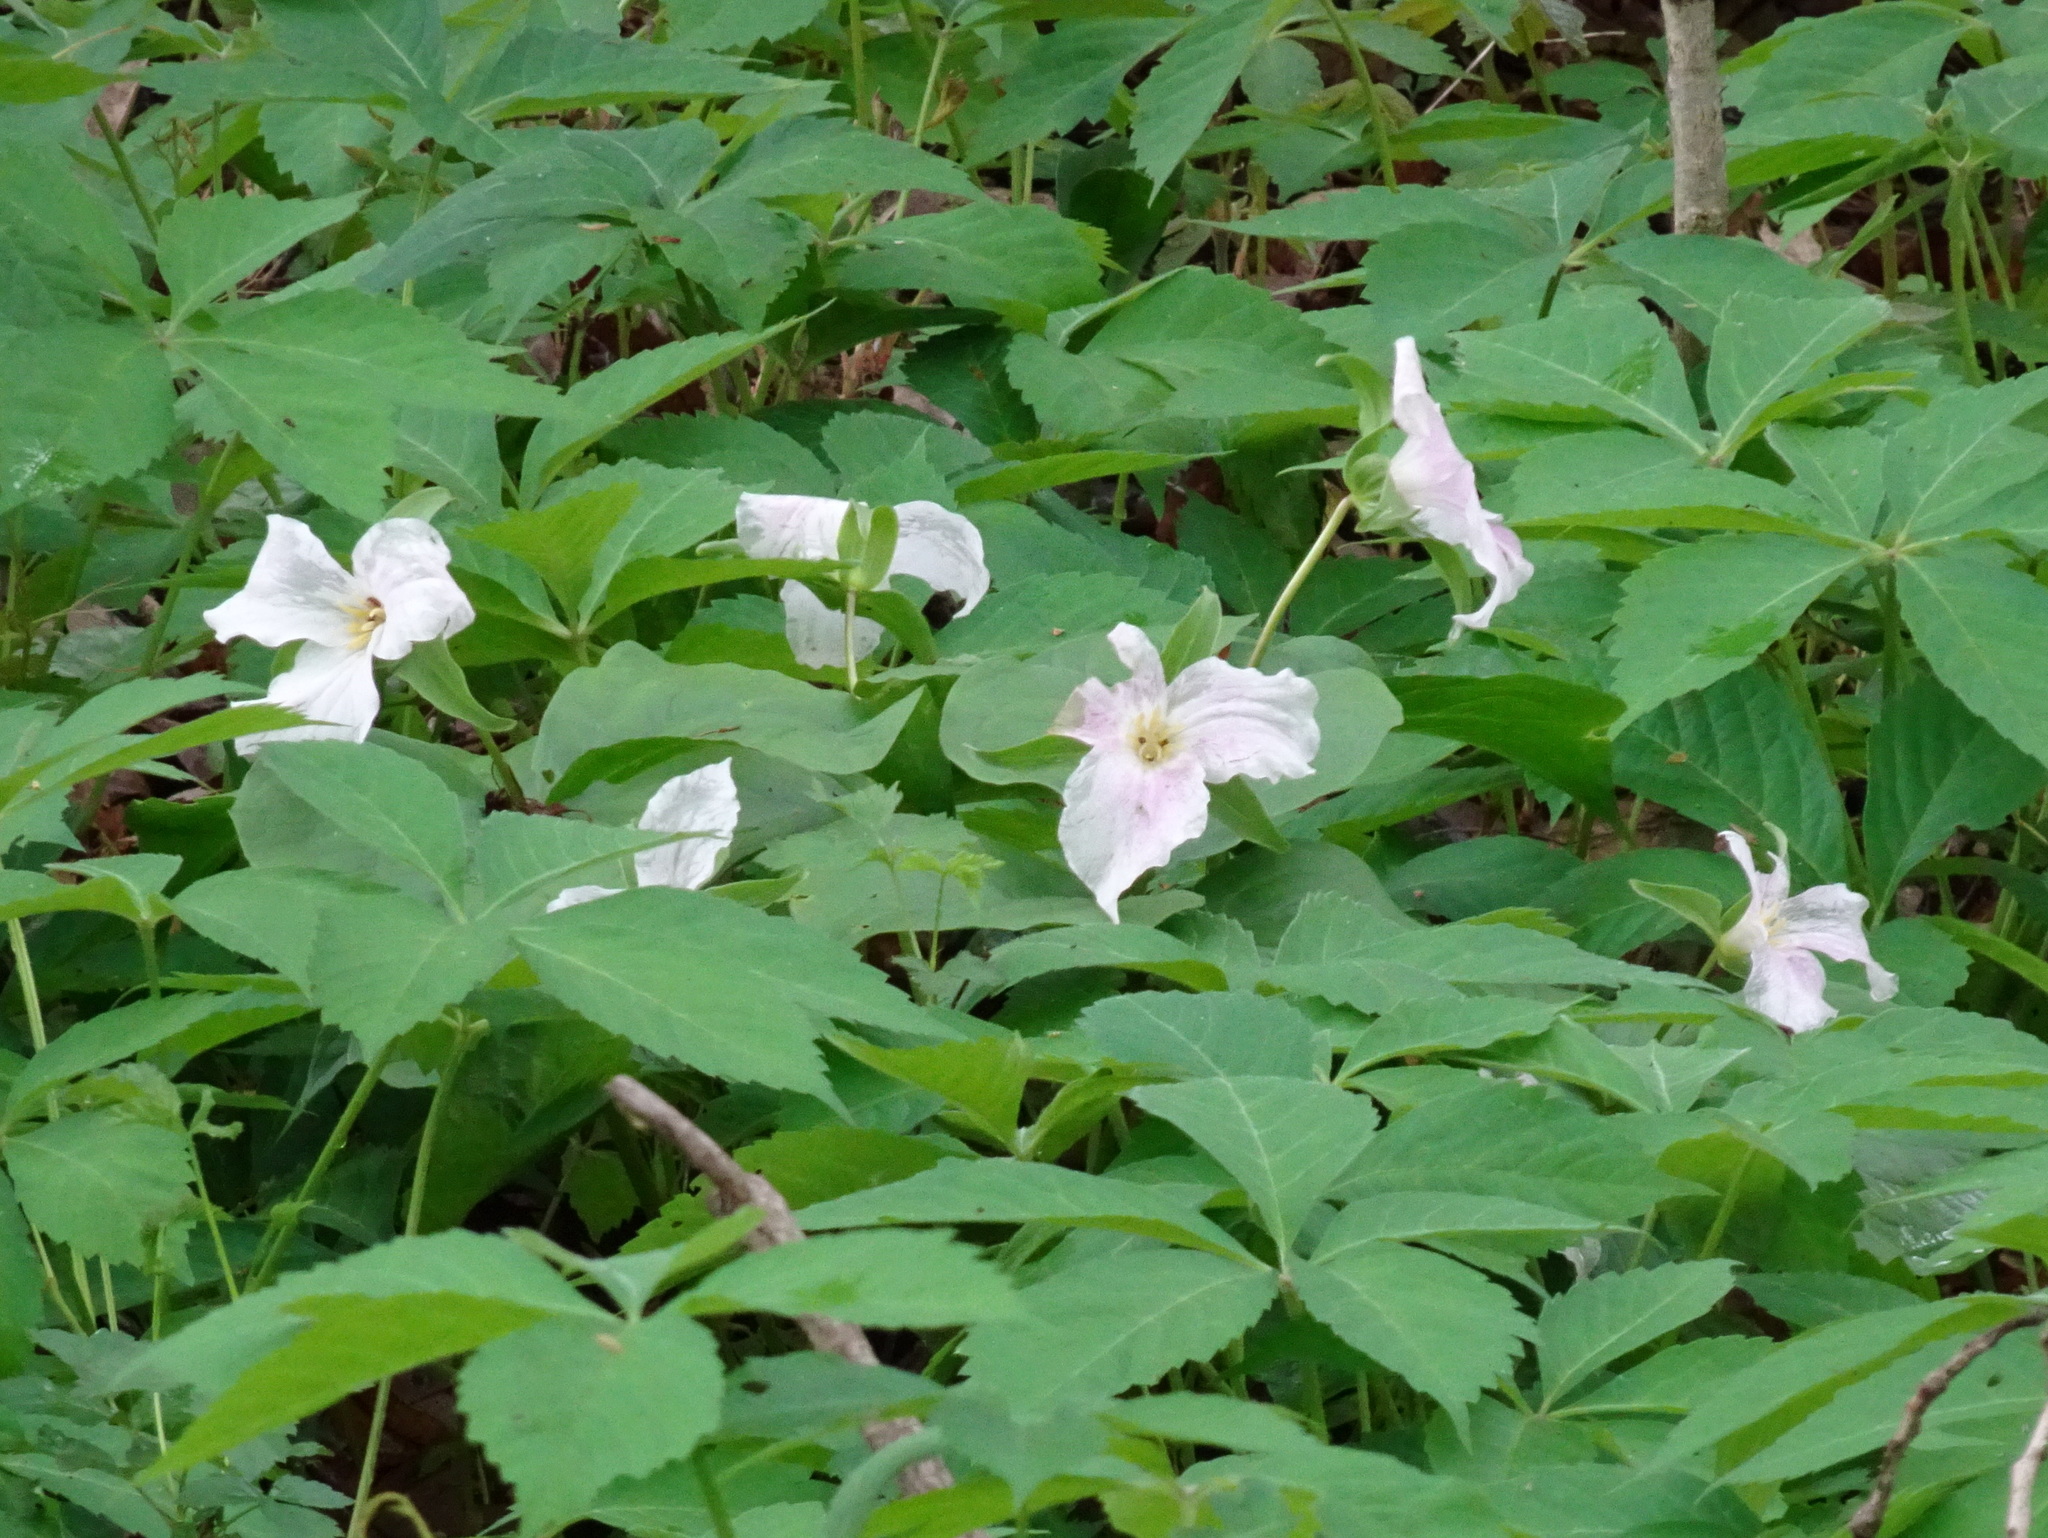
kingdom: Plantae
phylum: Tracheophyta
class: Liliopsida
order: Liliales
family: Melanthiaceae
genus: Trillium
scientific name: Trillium grandiflorum
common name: Great white trillium
